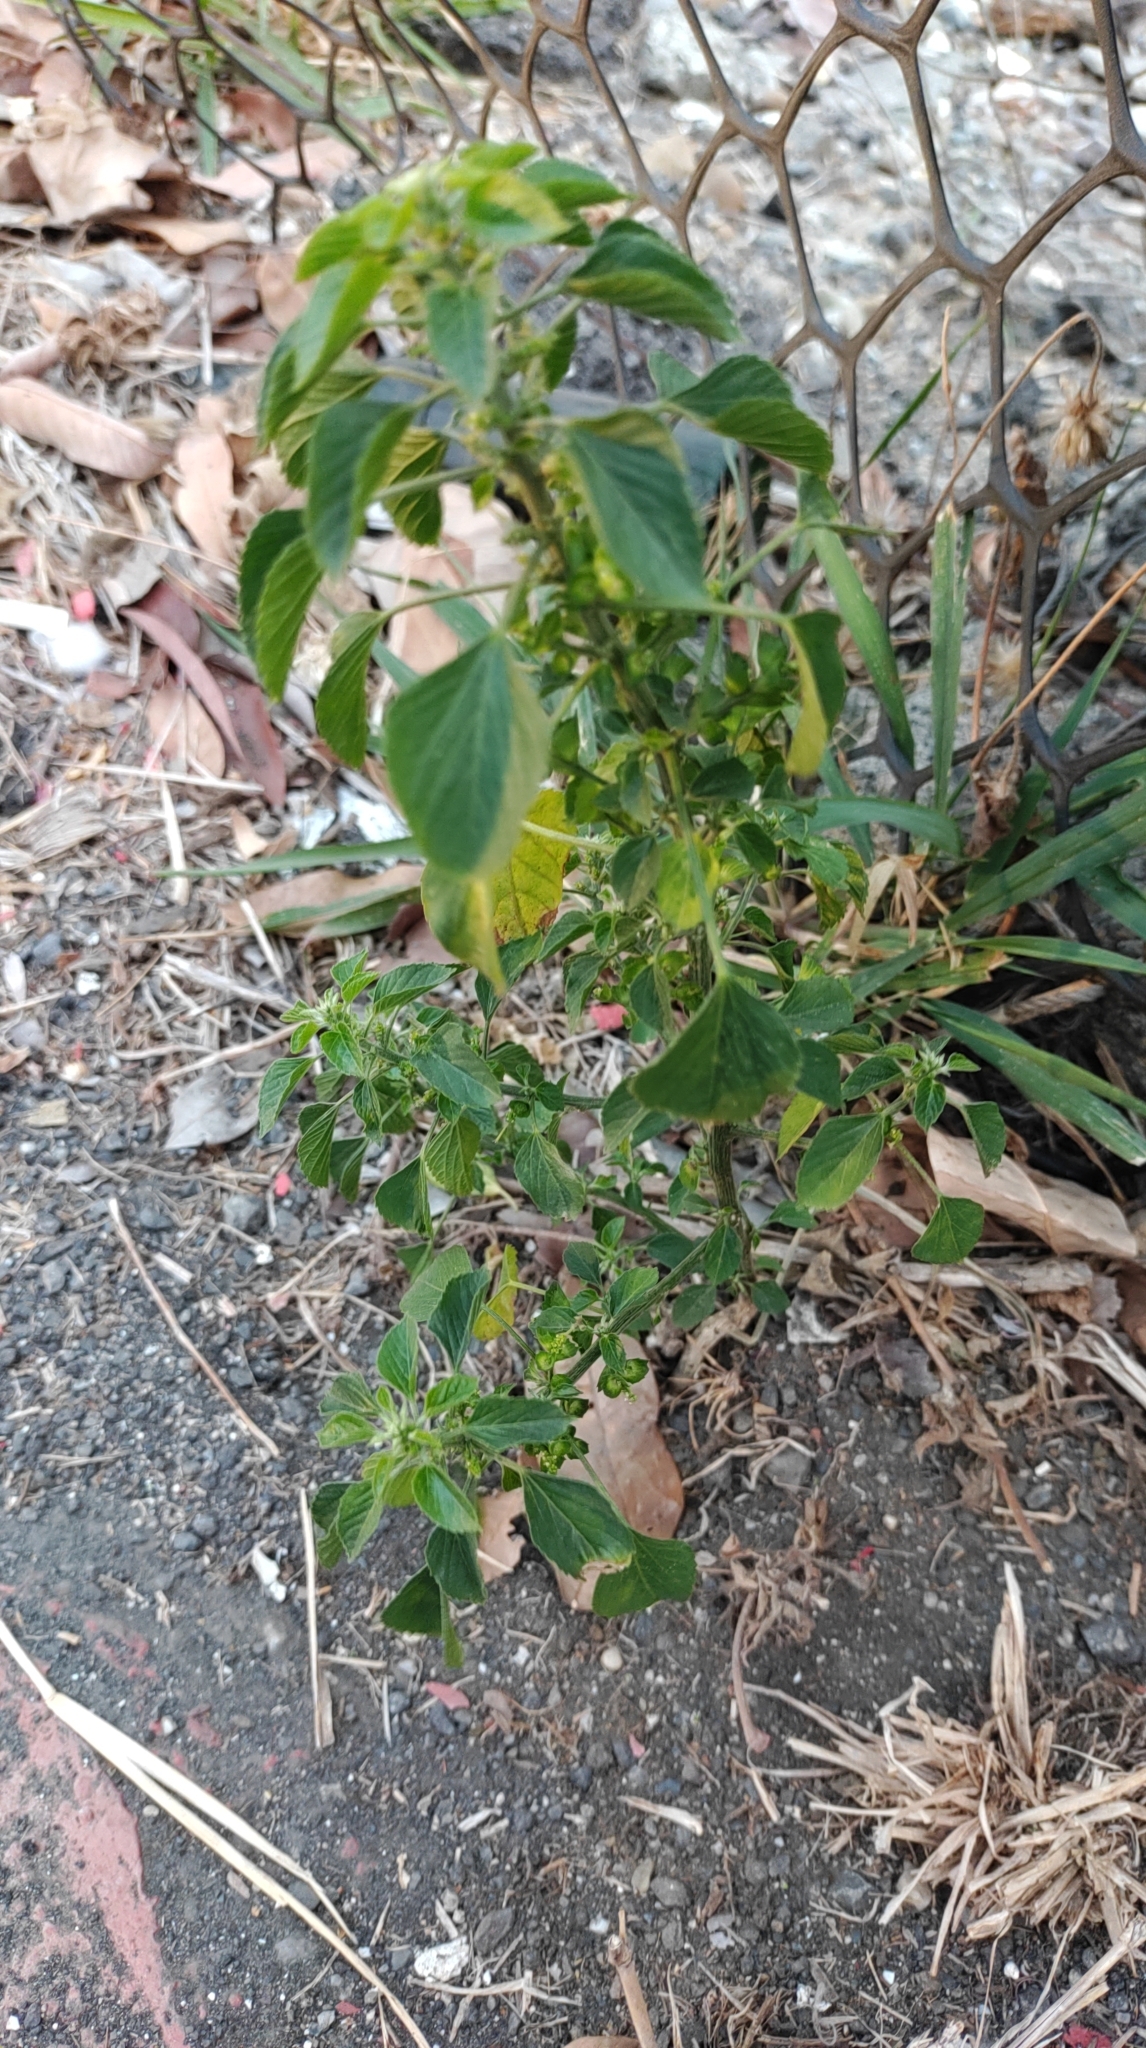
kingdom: Plantae
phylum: Tracheophyta
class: Magnoliopsida
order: Malpighiales
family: Euphorbiaceae
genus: Acalypha
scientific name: Acalypha indica
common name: Indian acalypha
